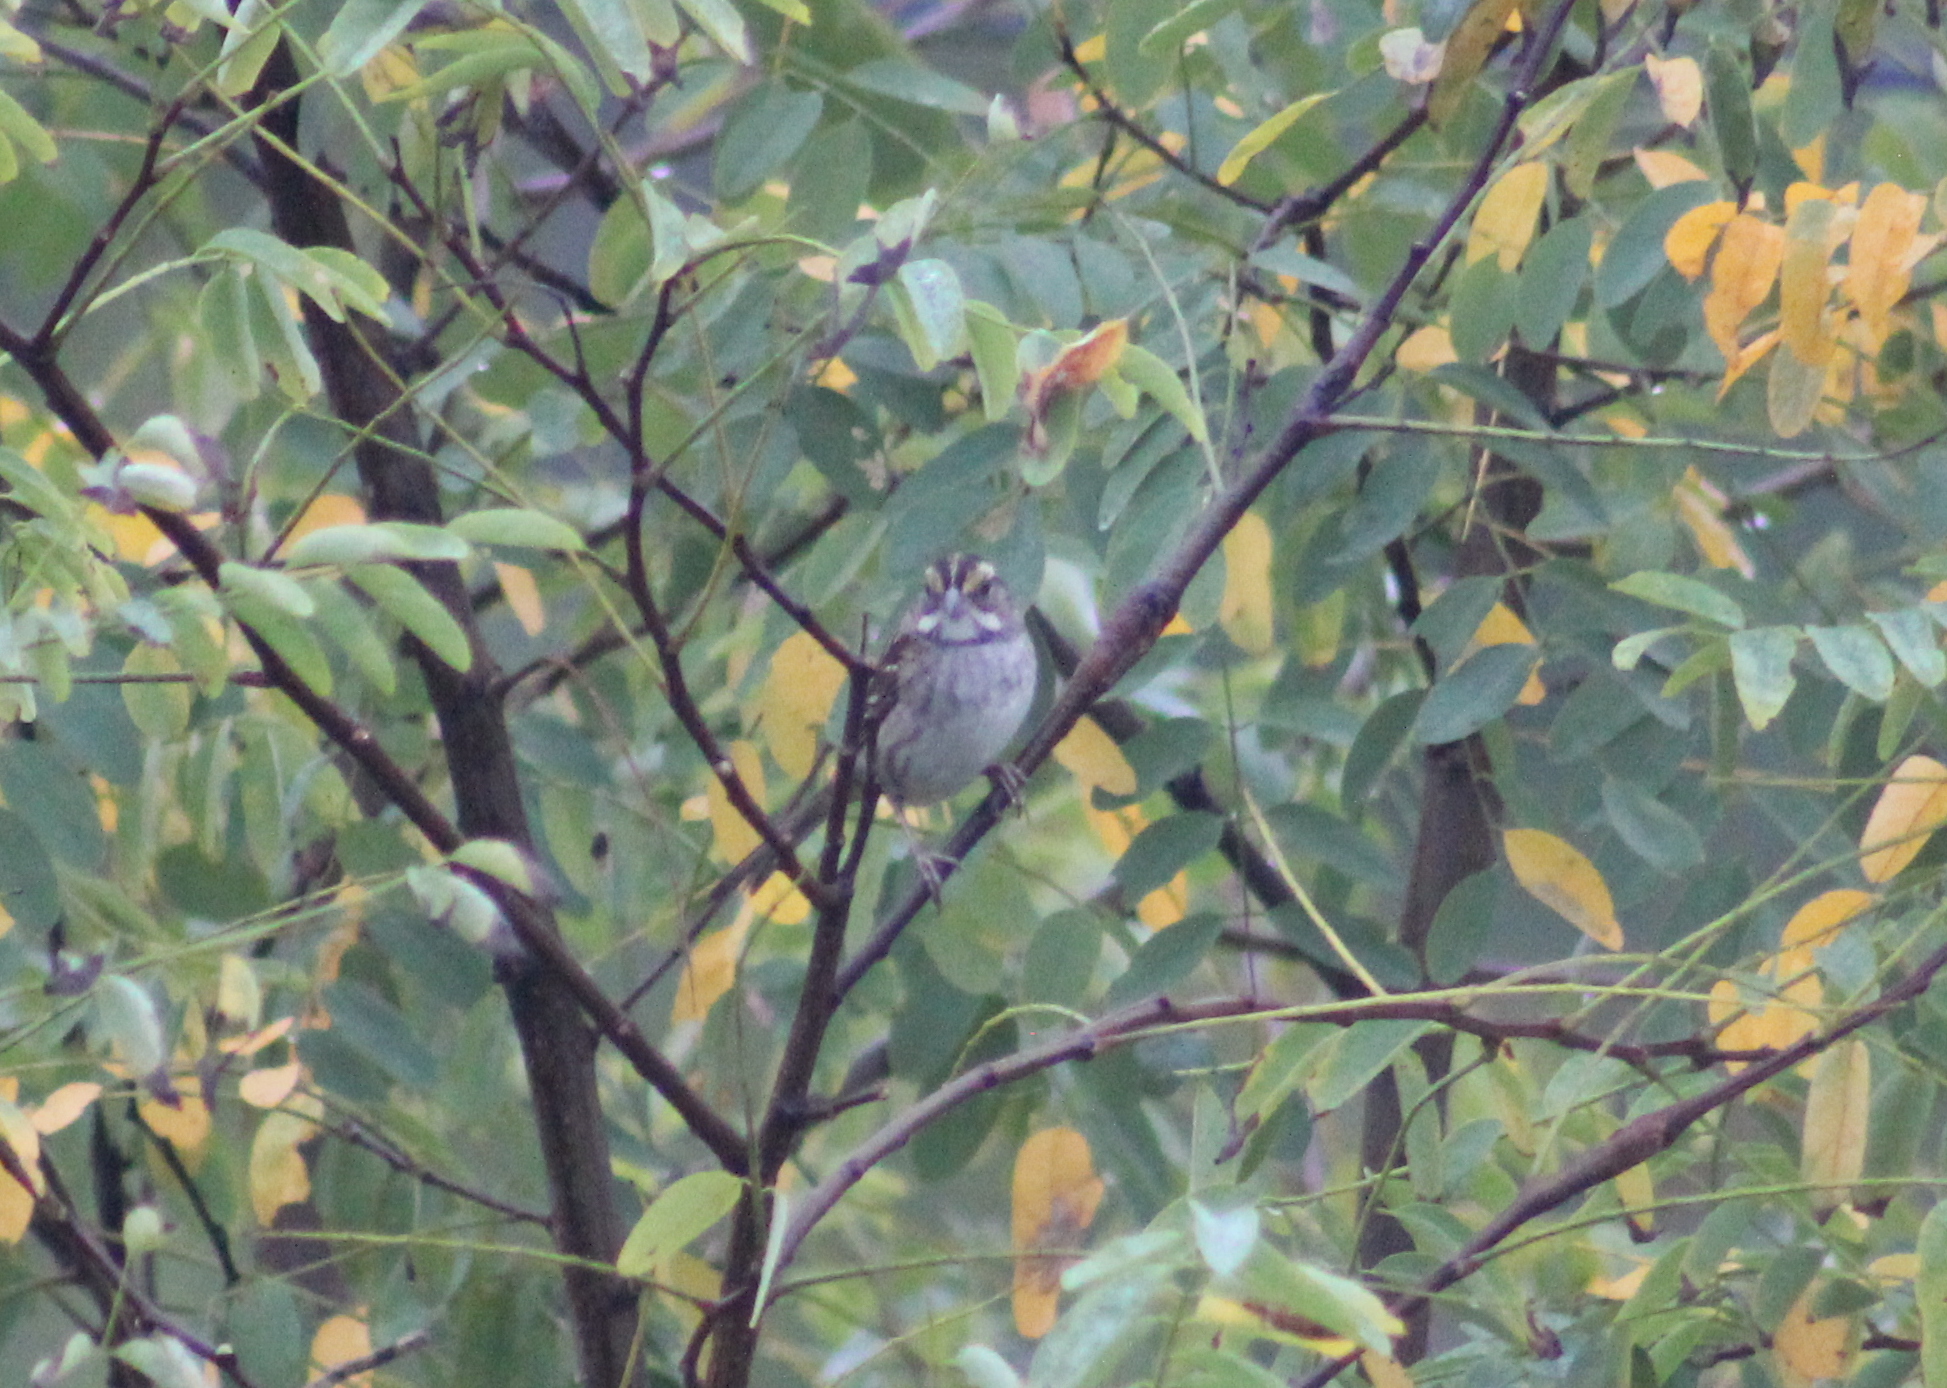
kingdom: Animalia
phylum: Chordata
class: Aves
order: Passeriformes
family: Passerellidae
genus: Zonotrichia
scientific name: Zonotrichia albicollis
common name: White-throated sparrow
